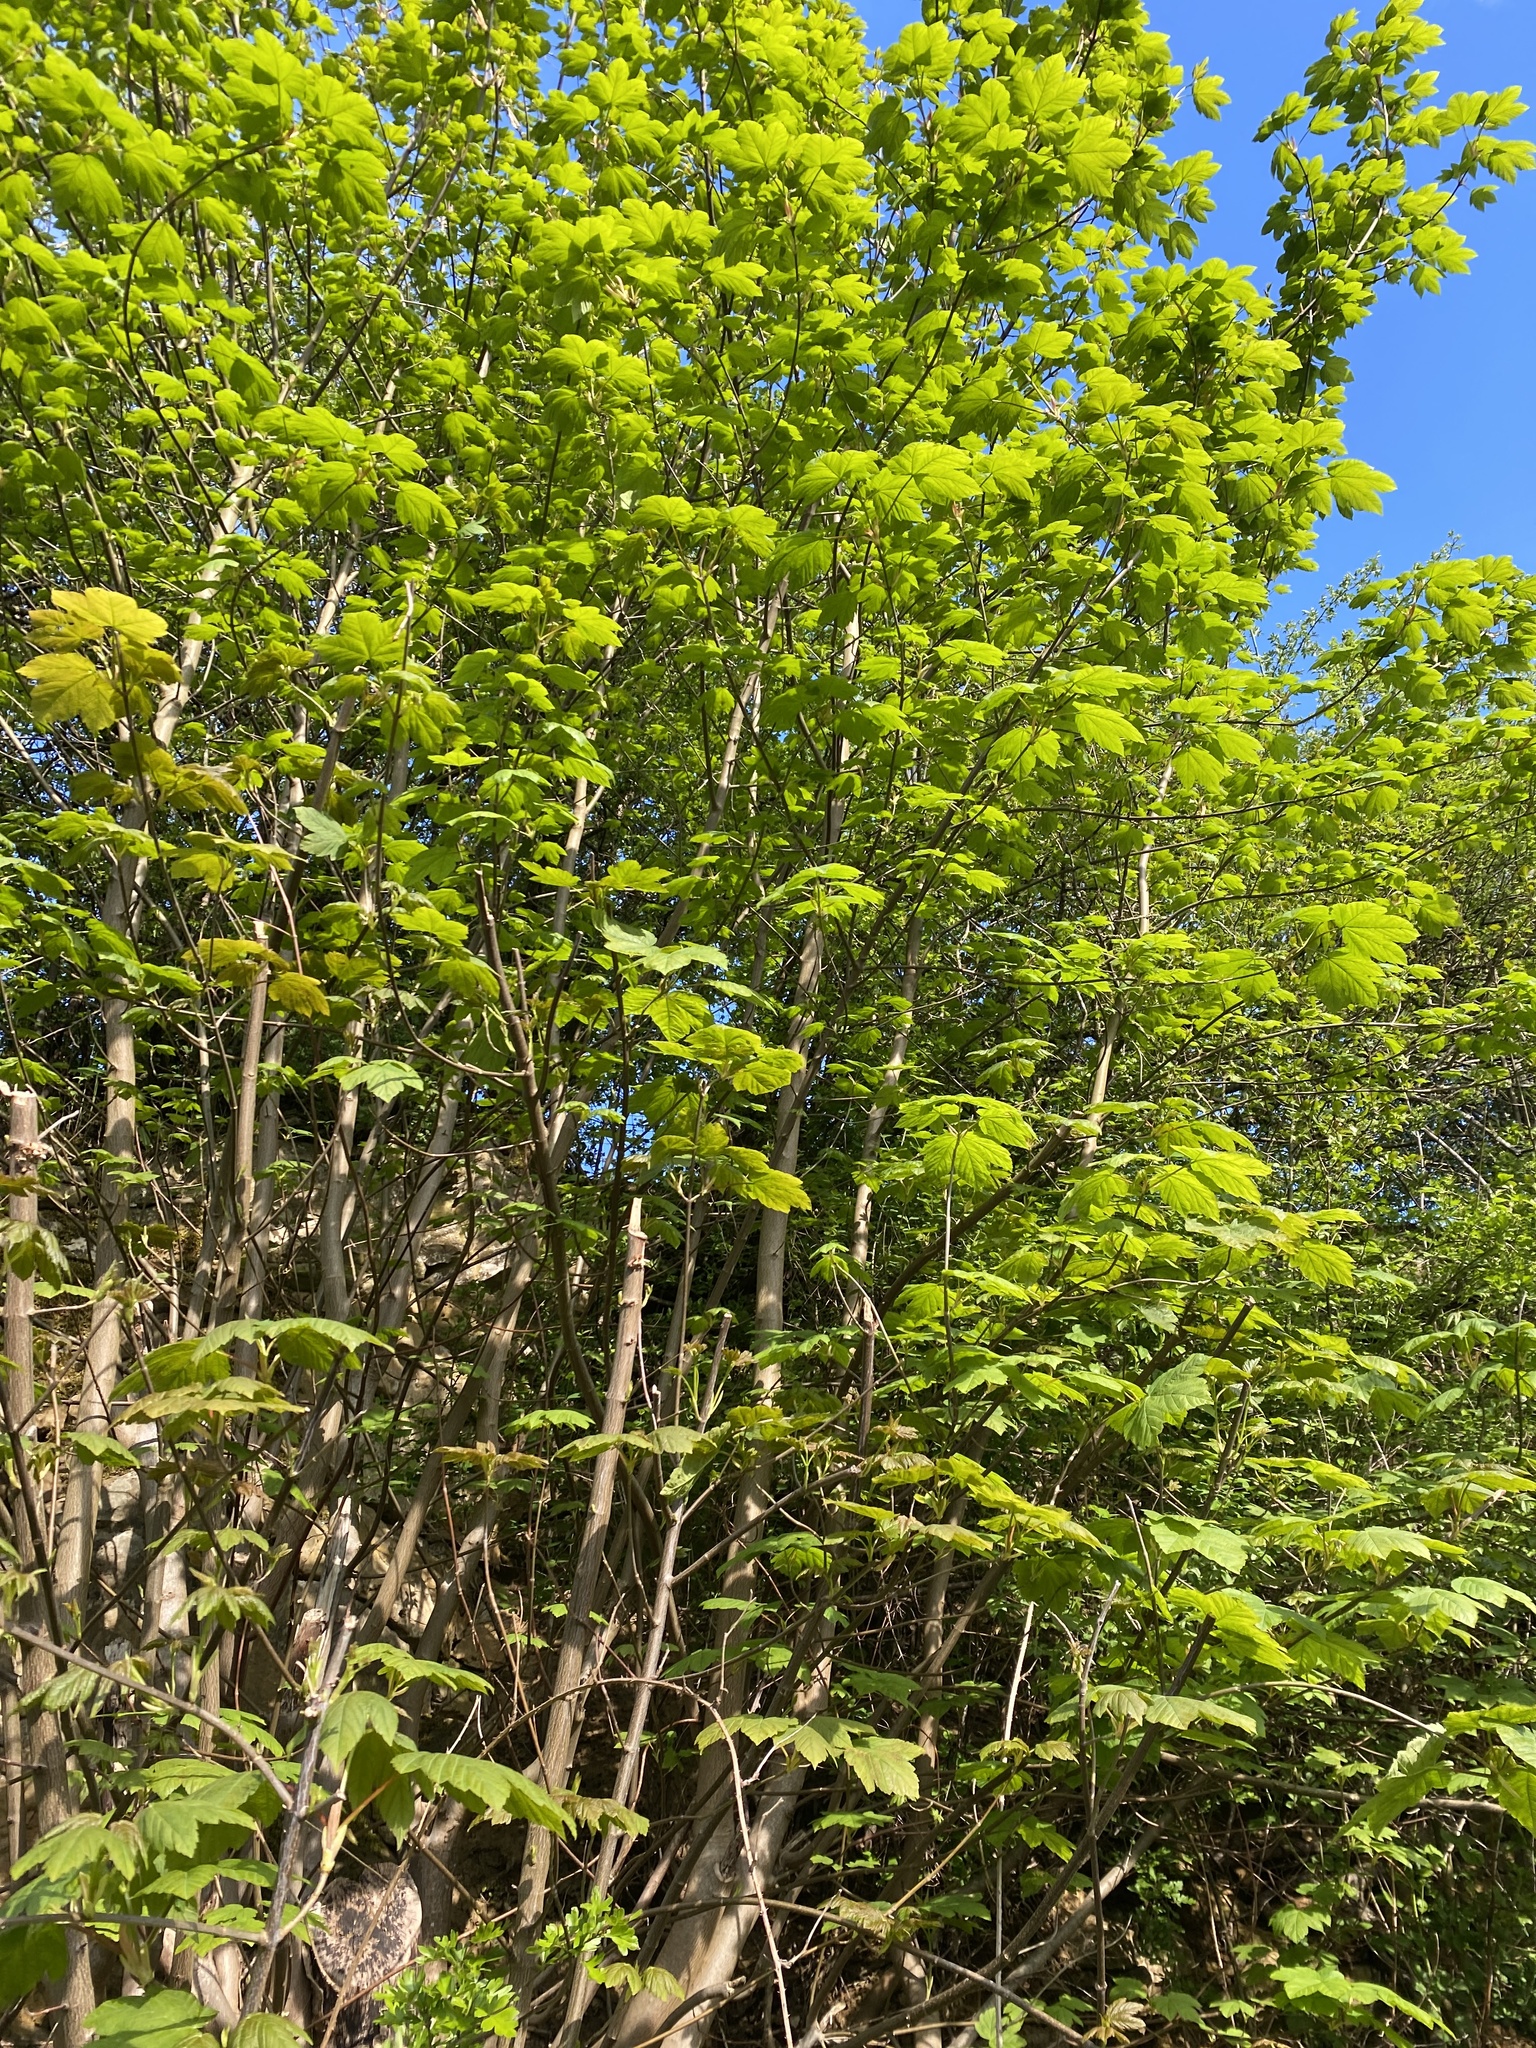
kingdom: Plantae
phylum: Tracheophyta
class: Magnoliopsida
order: Sapindales
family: Sapindaceae
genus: Acer
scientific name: Acer pseudoplatanus
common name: Sycamore
